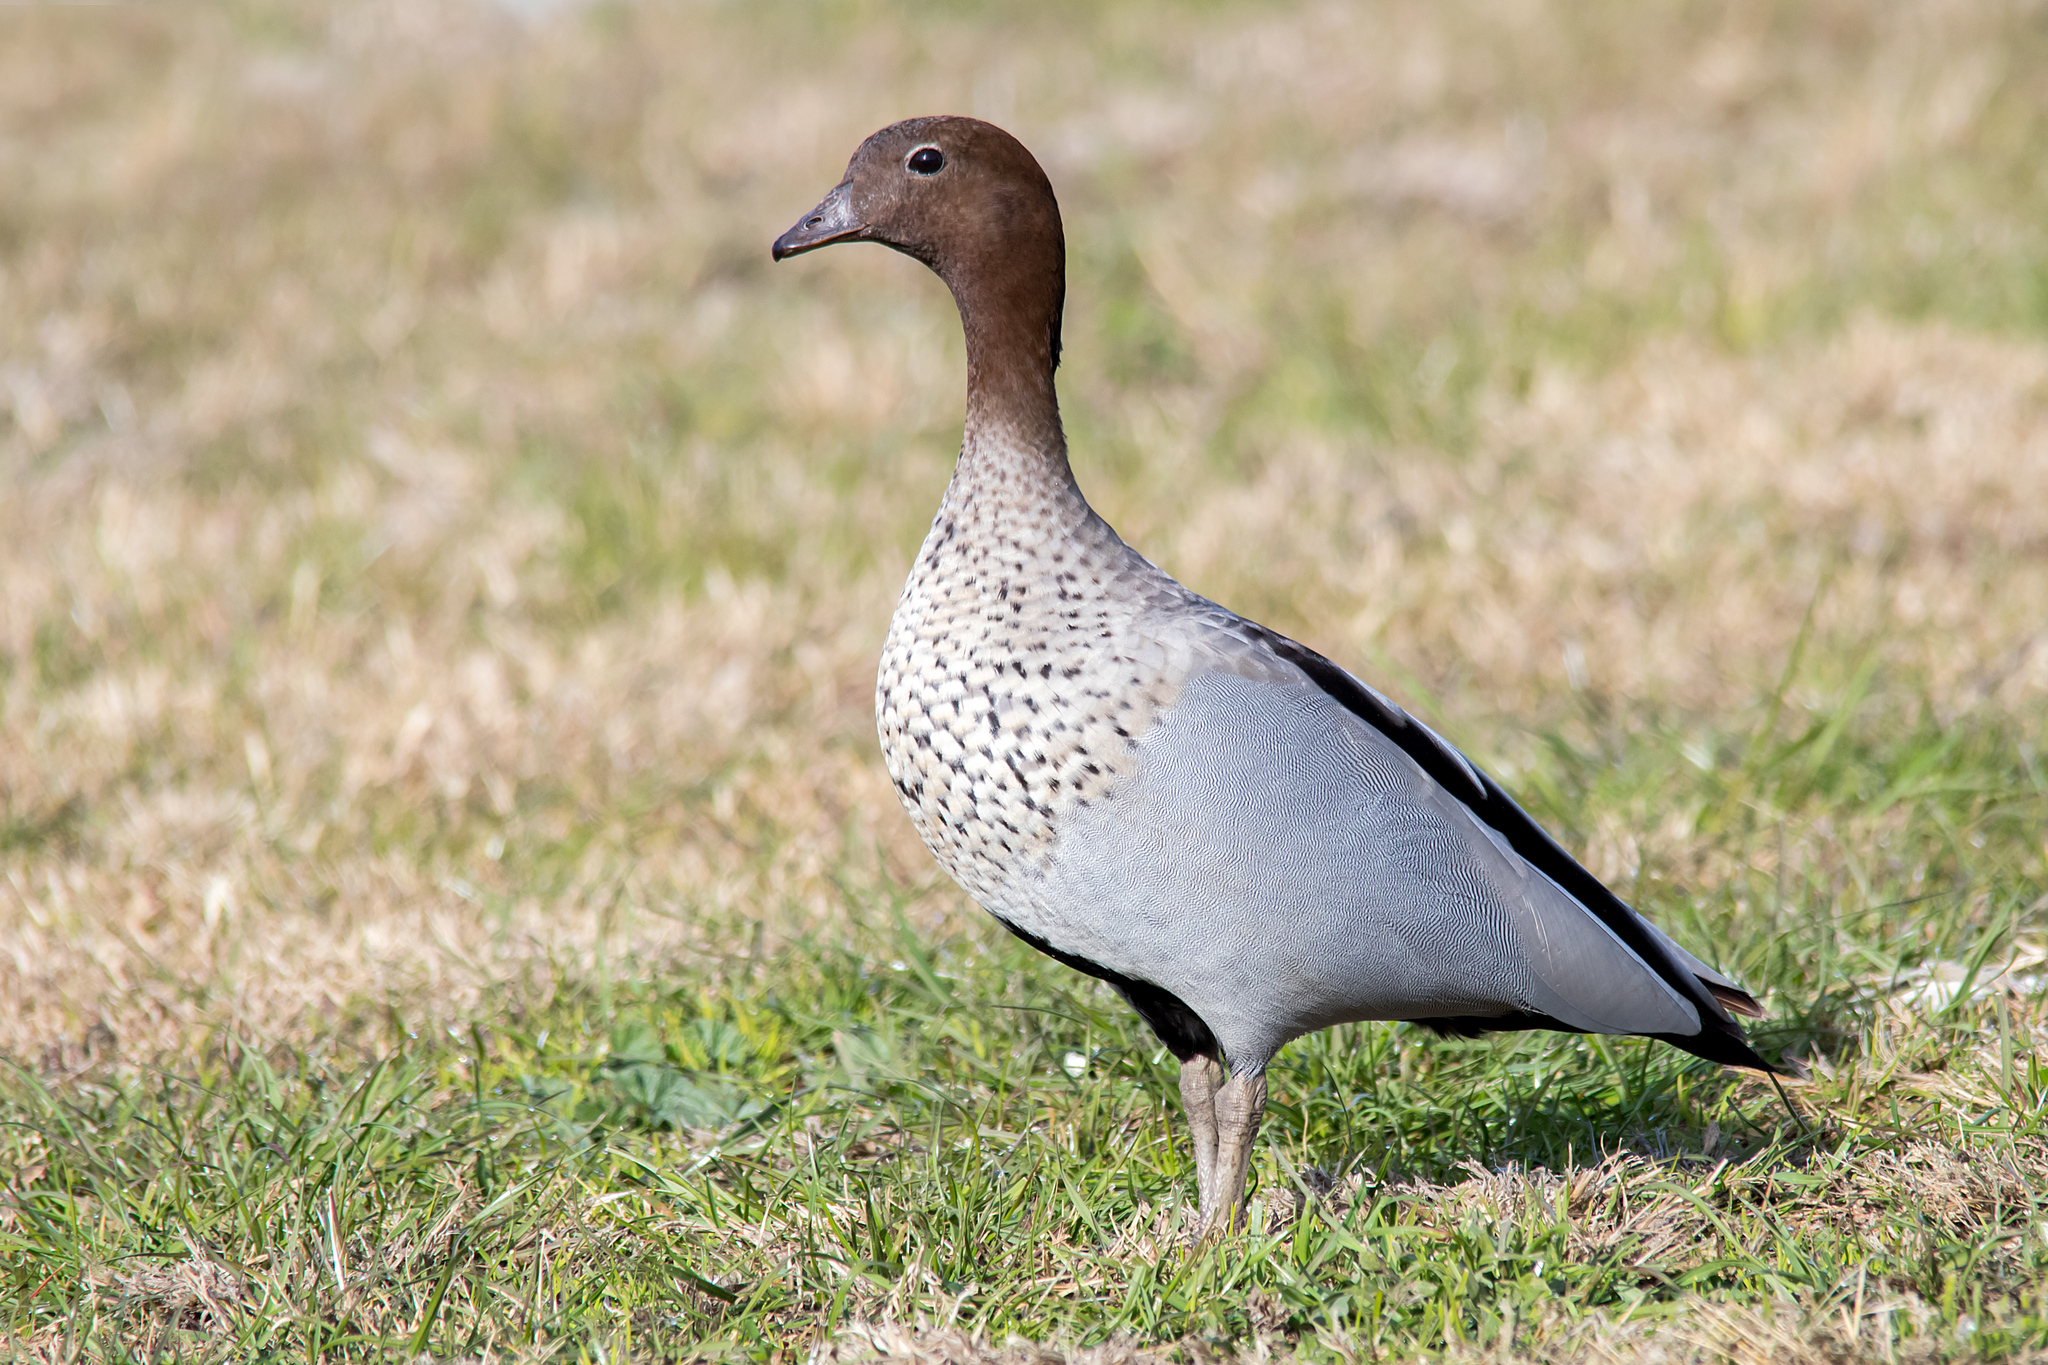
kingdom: Animalia
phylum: Chordata
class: Aves
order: Anseriformes
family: Anatidae
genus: Chenonetta
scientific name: Chenonetta jubata
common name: Maned duck
